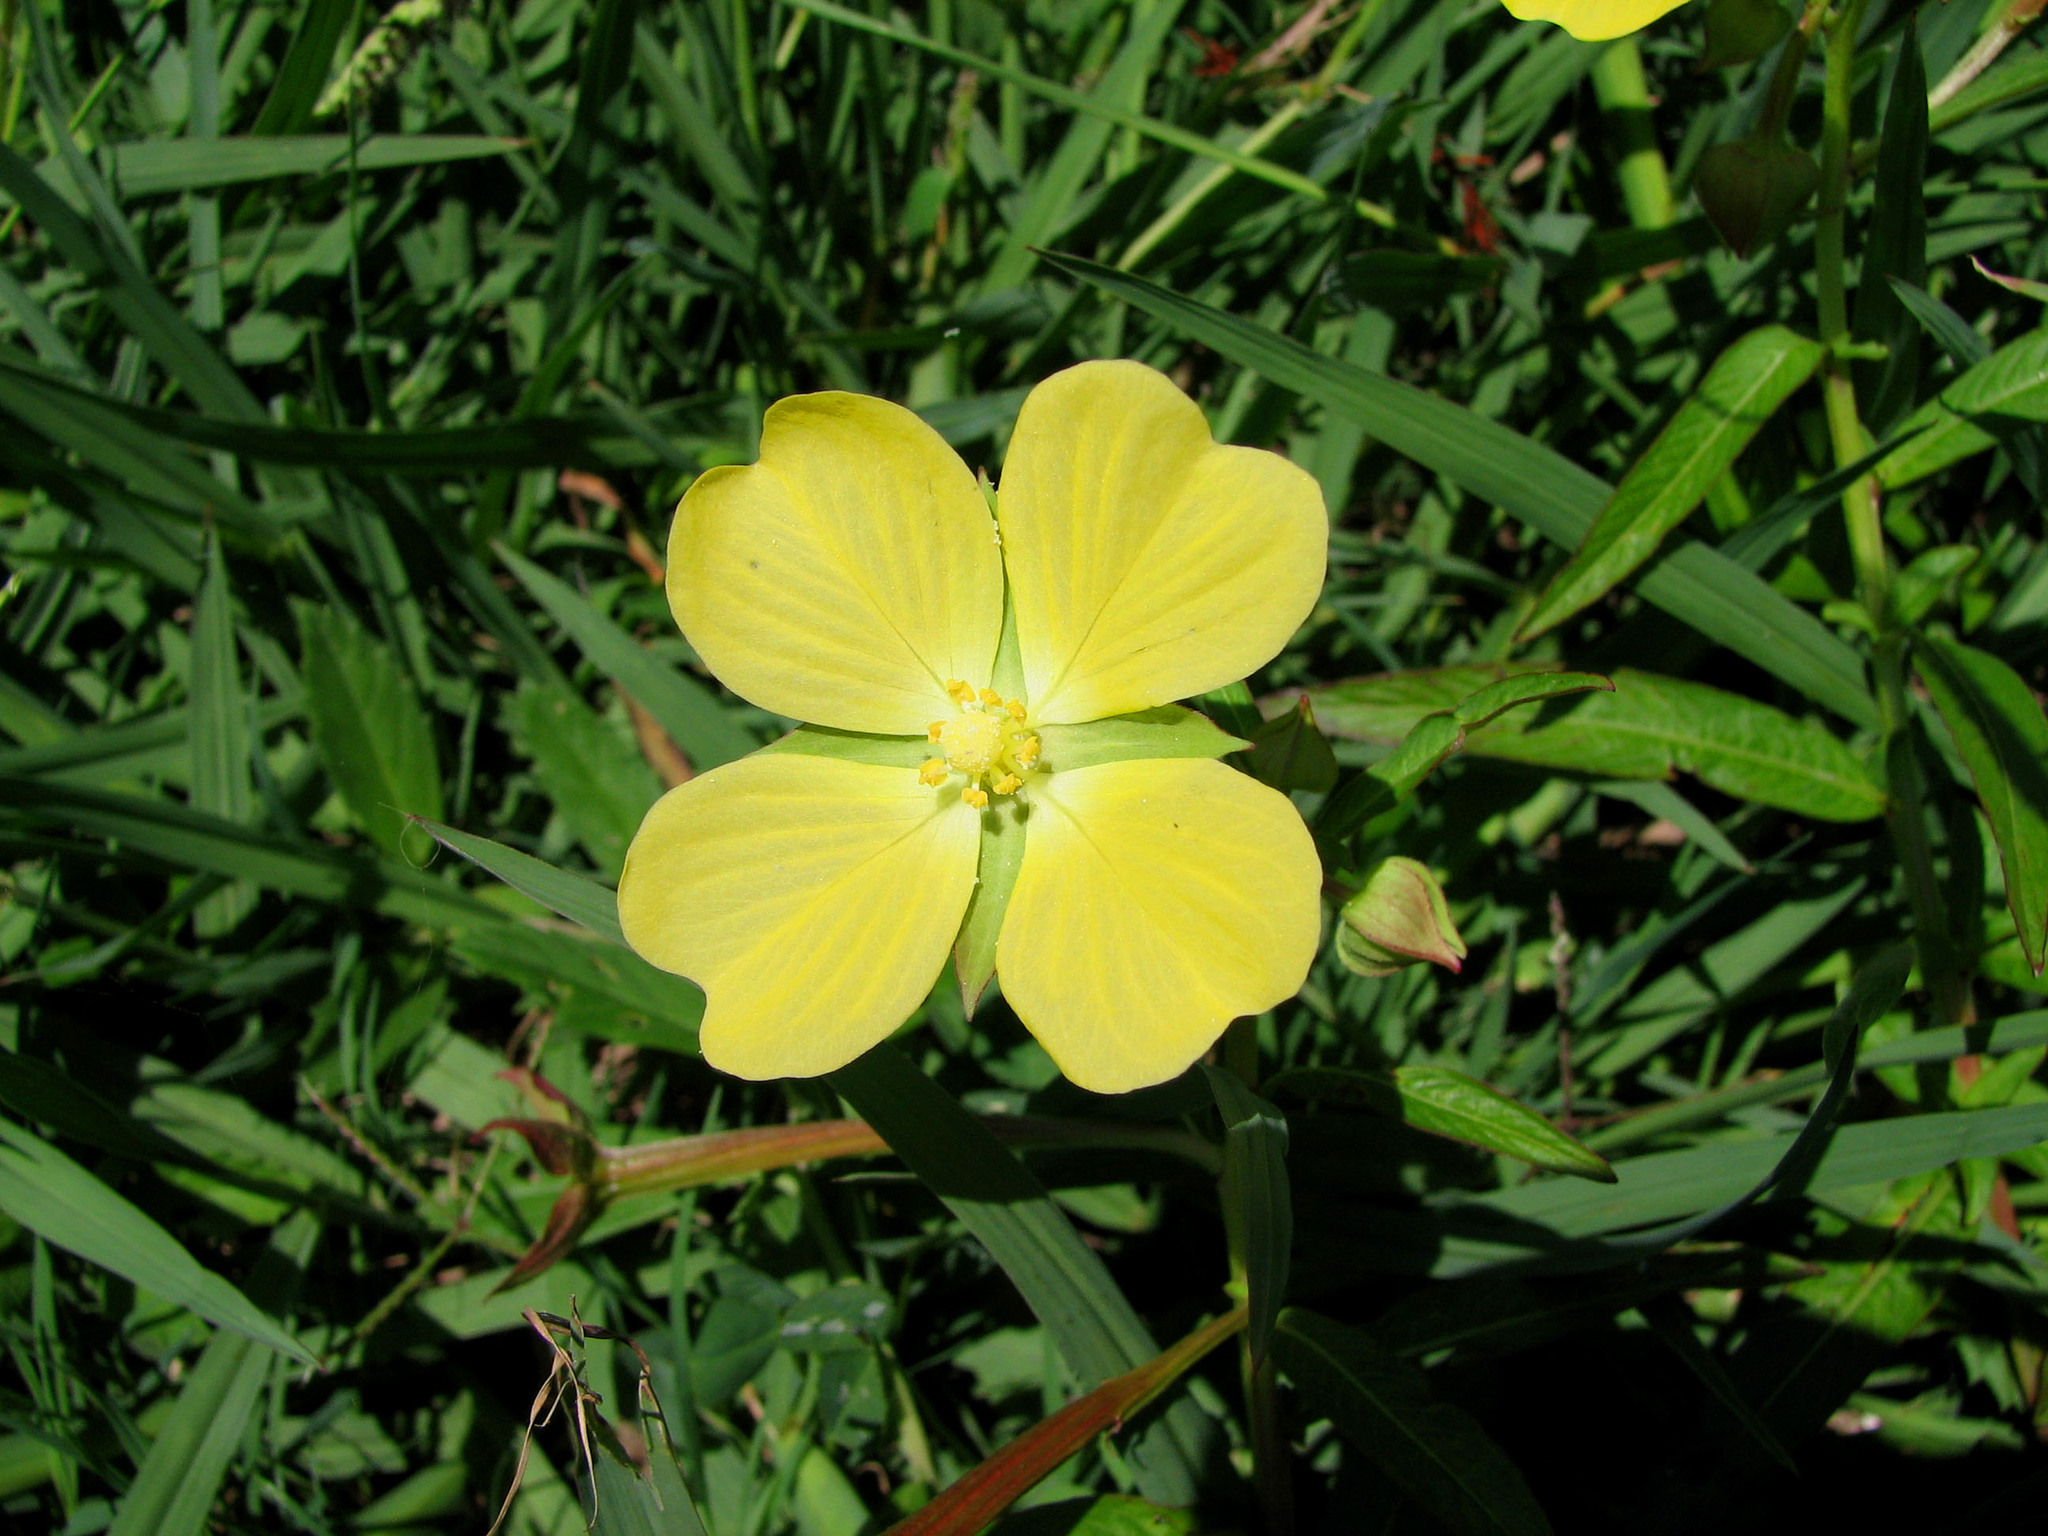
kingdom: Plantae
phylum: Tracheophyta
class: Magnoliopsida
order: Myrtales
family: Onagraceae
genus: Ludwigia
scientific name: Ludwigia octovalvis
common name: Water-primrose
